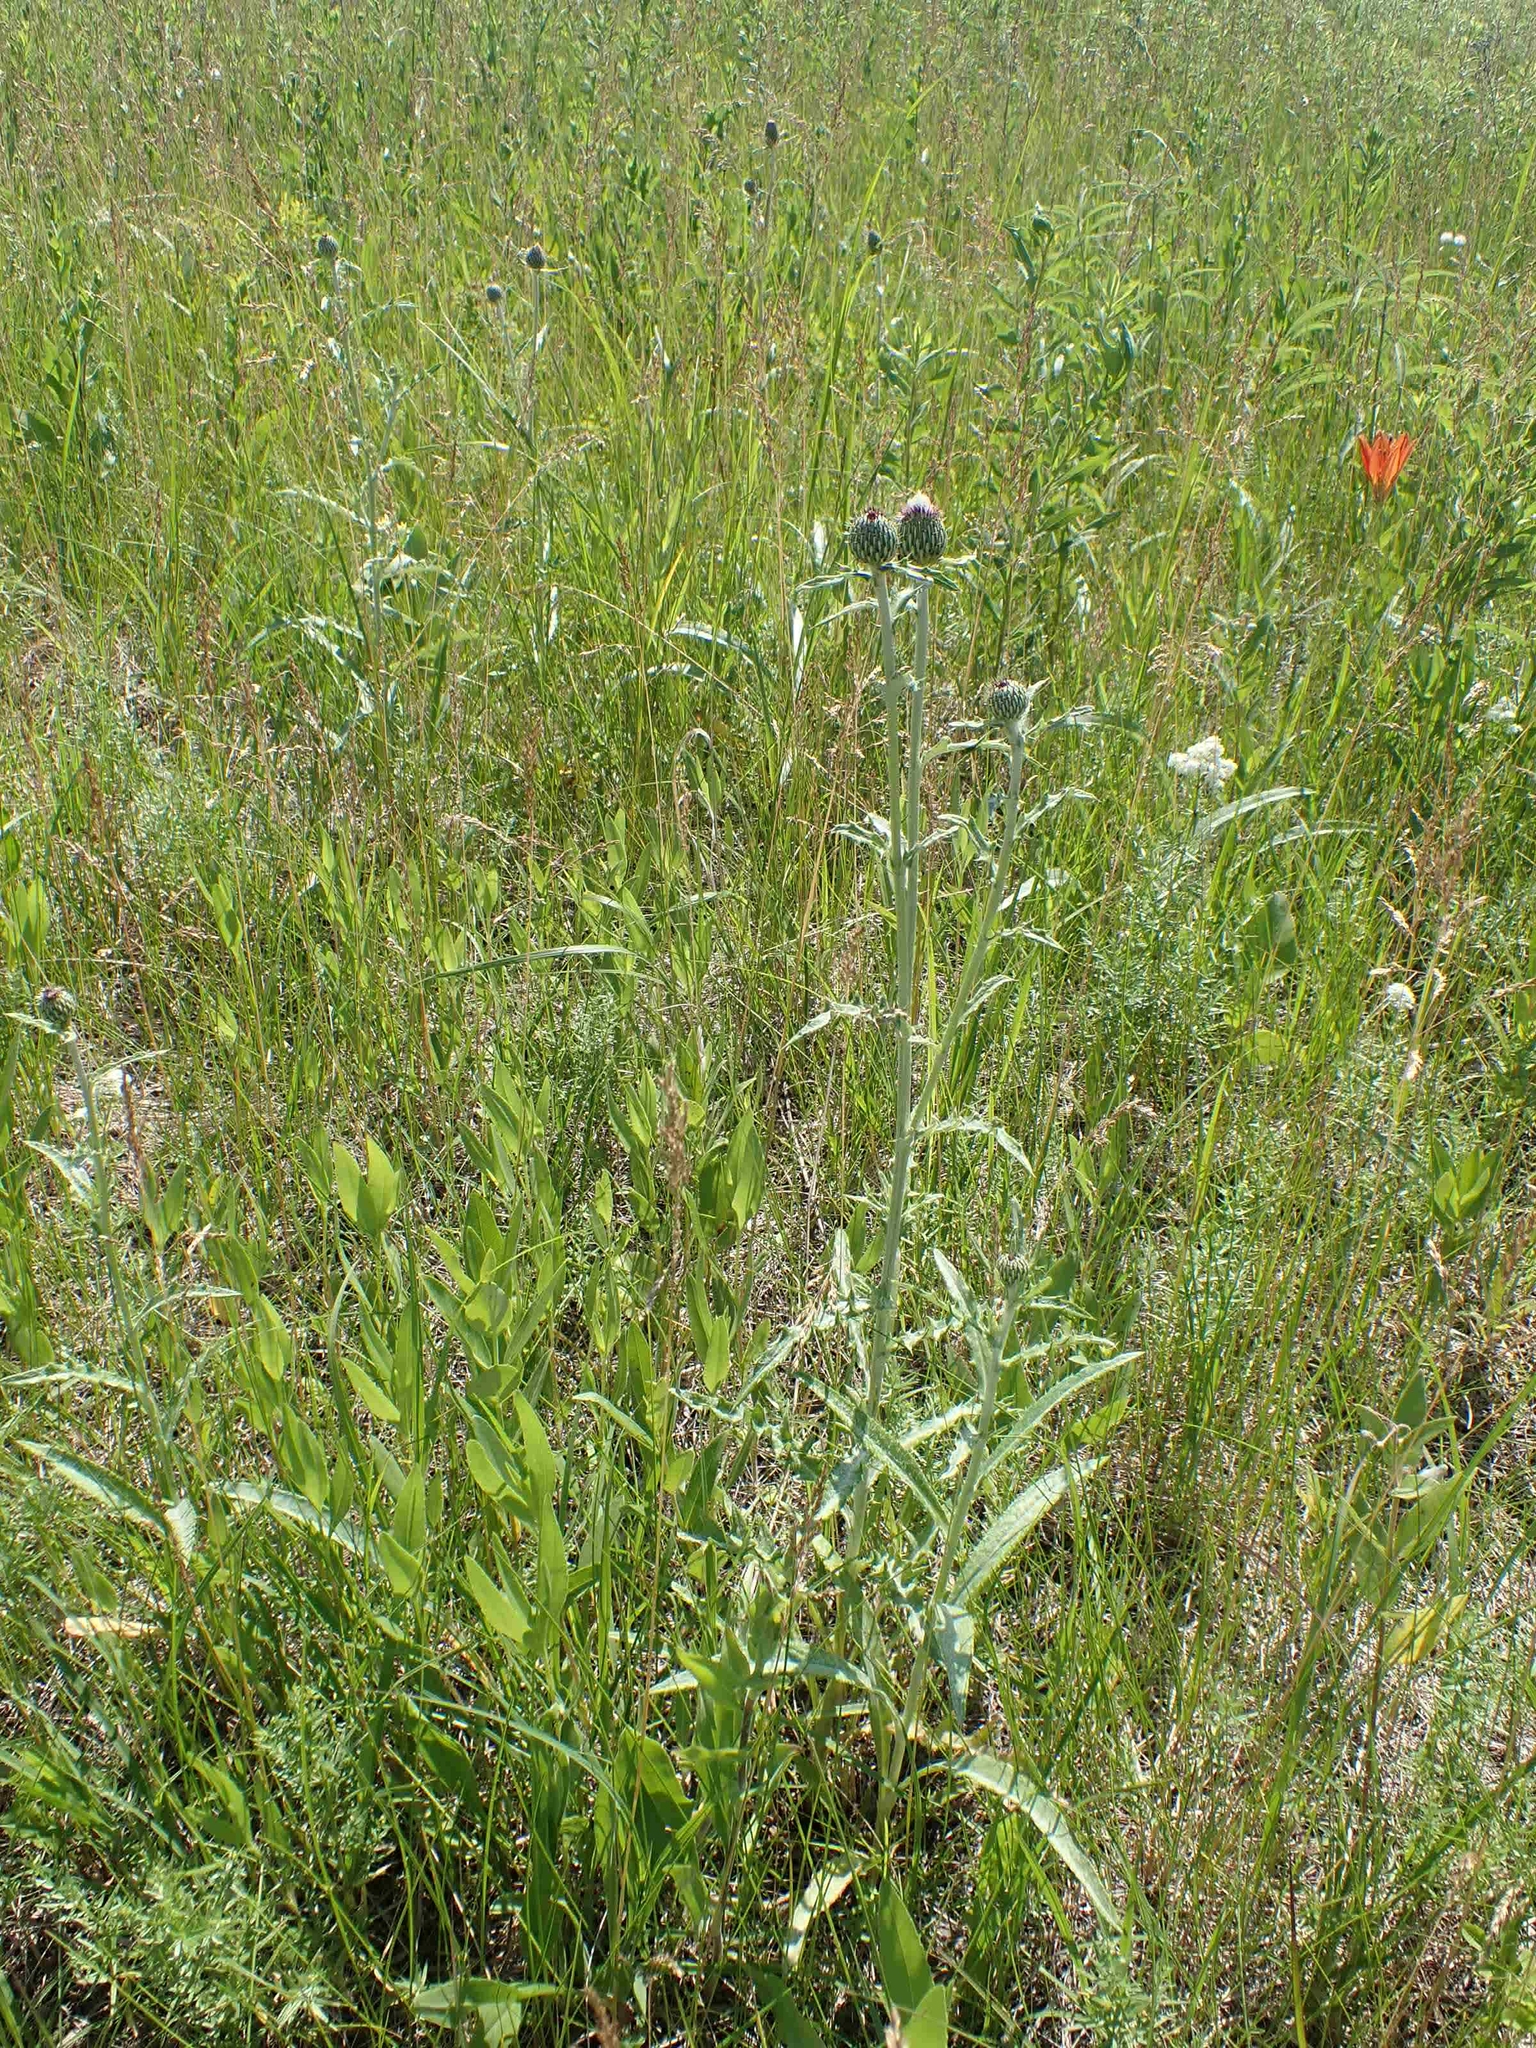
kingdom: Plantae
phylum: Tracheophyta
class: Magnoliopsida
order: Asterales
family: Asteraceae
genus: Cirsium
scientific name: Cirsium flodmanii
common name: Flodman's thistle
